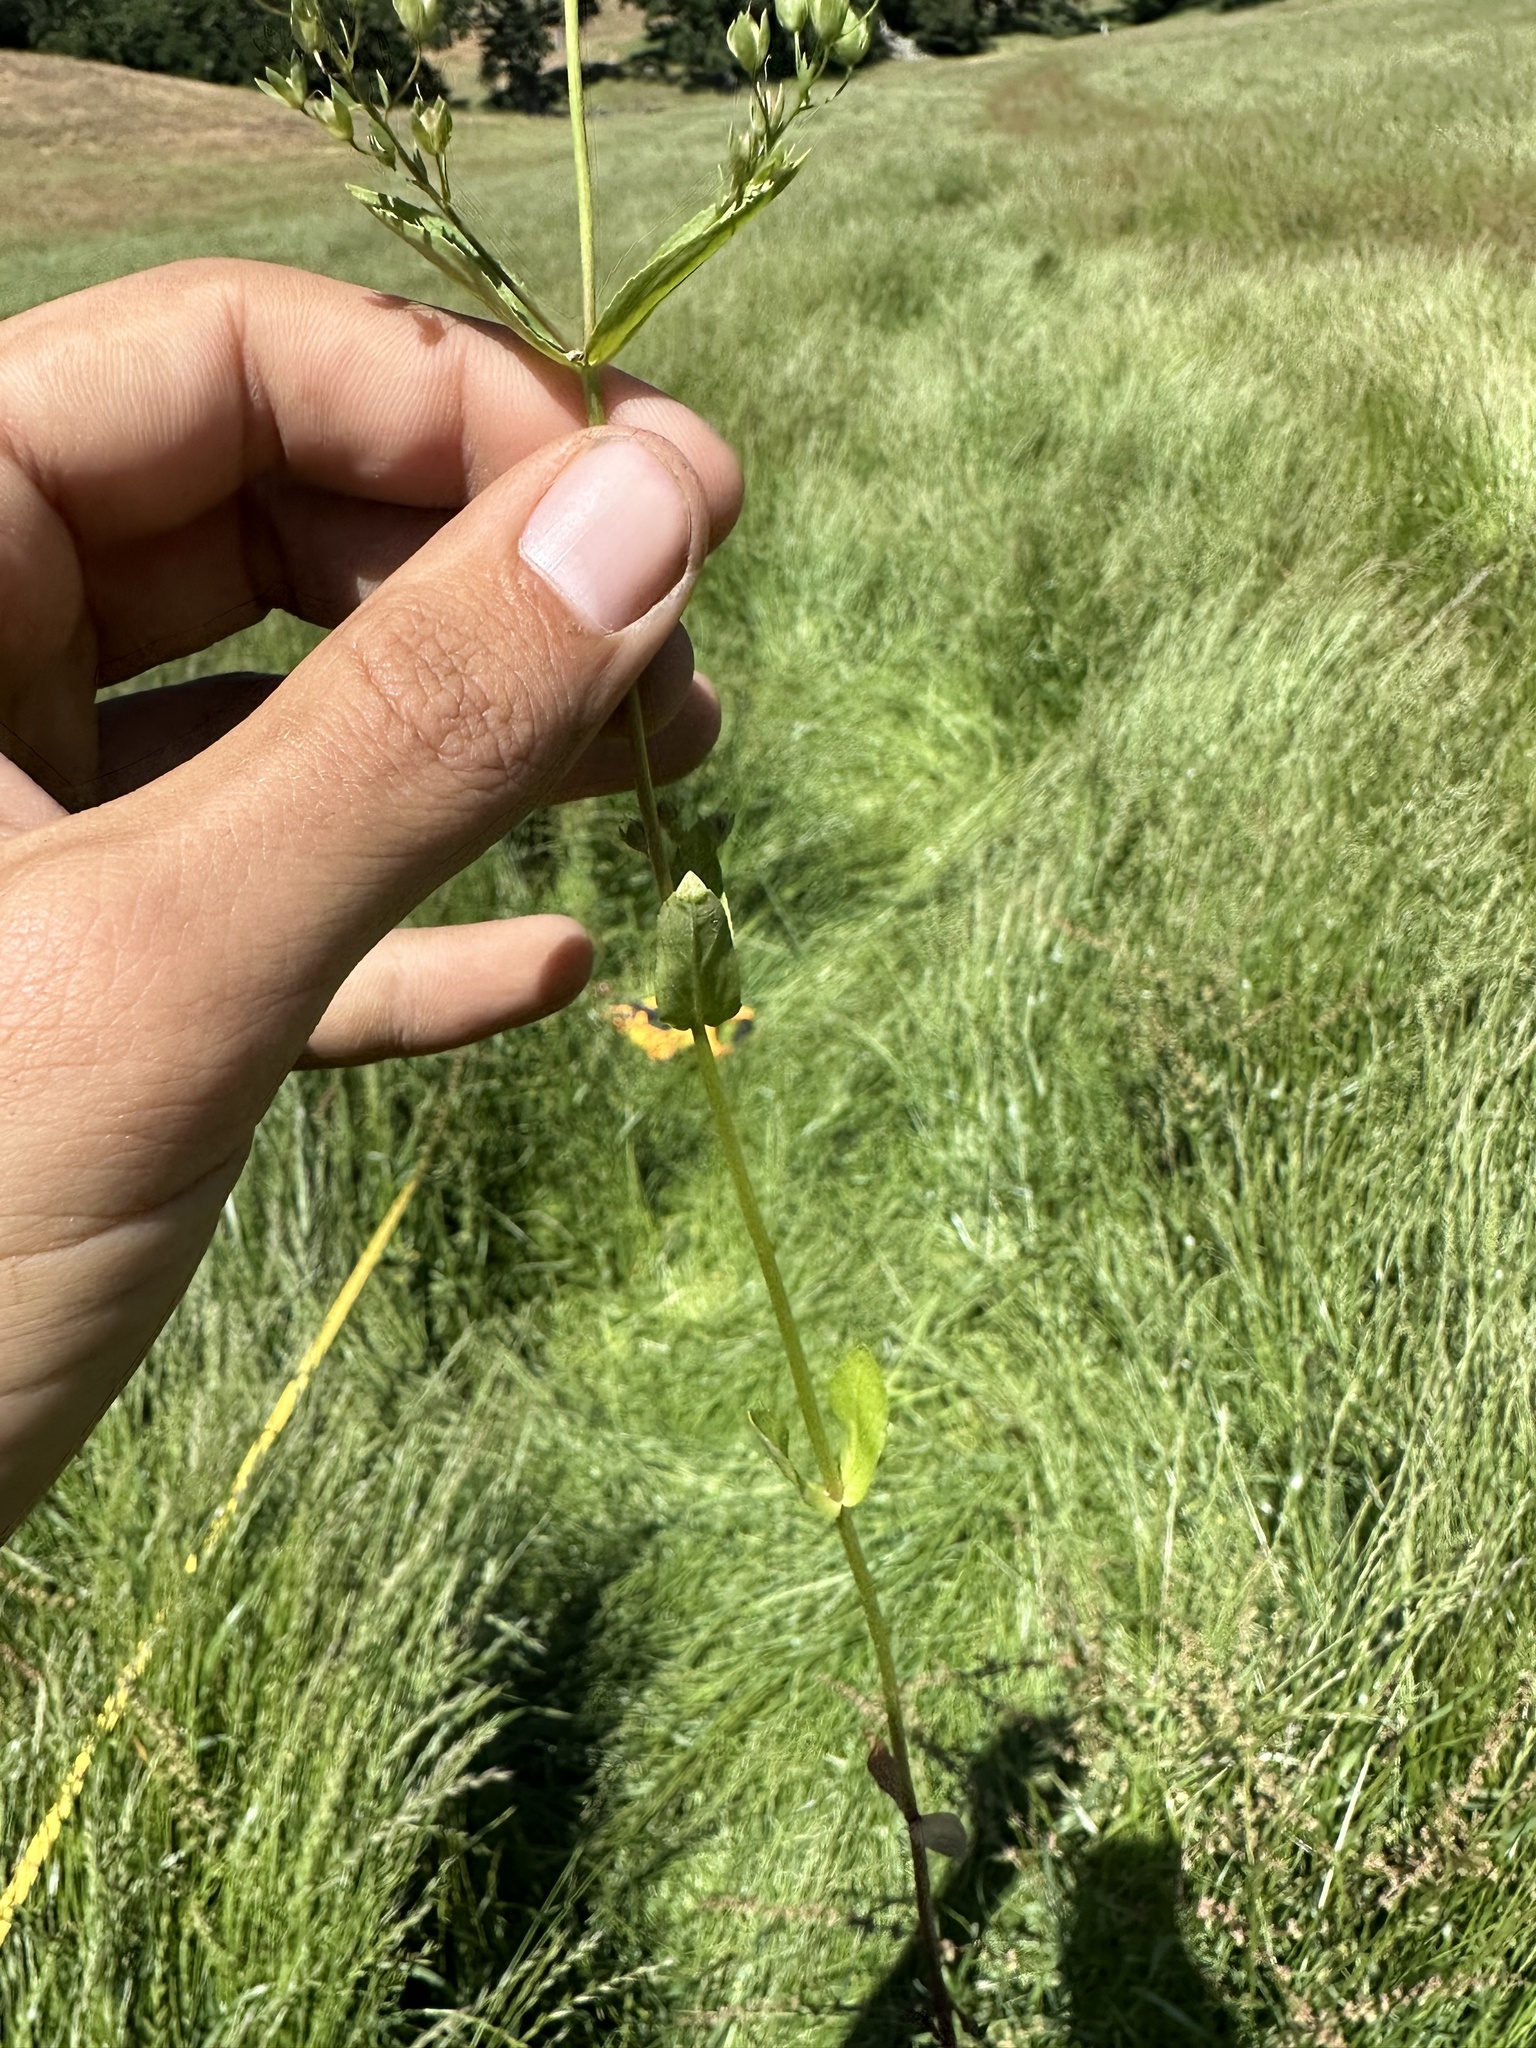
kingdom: Plantae
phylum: Tracheophyta
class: Magnoliopsida
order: Lamiales
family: Plantaginaceae
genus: Veronica
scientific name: Veronica anagallis-aquatica
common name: Water speedwell
